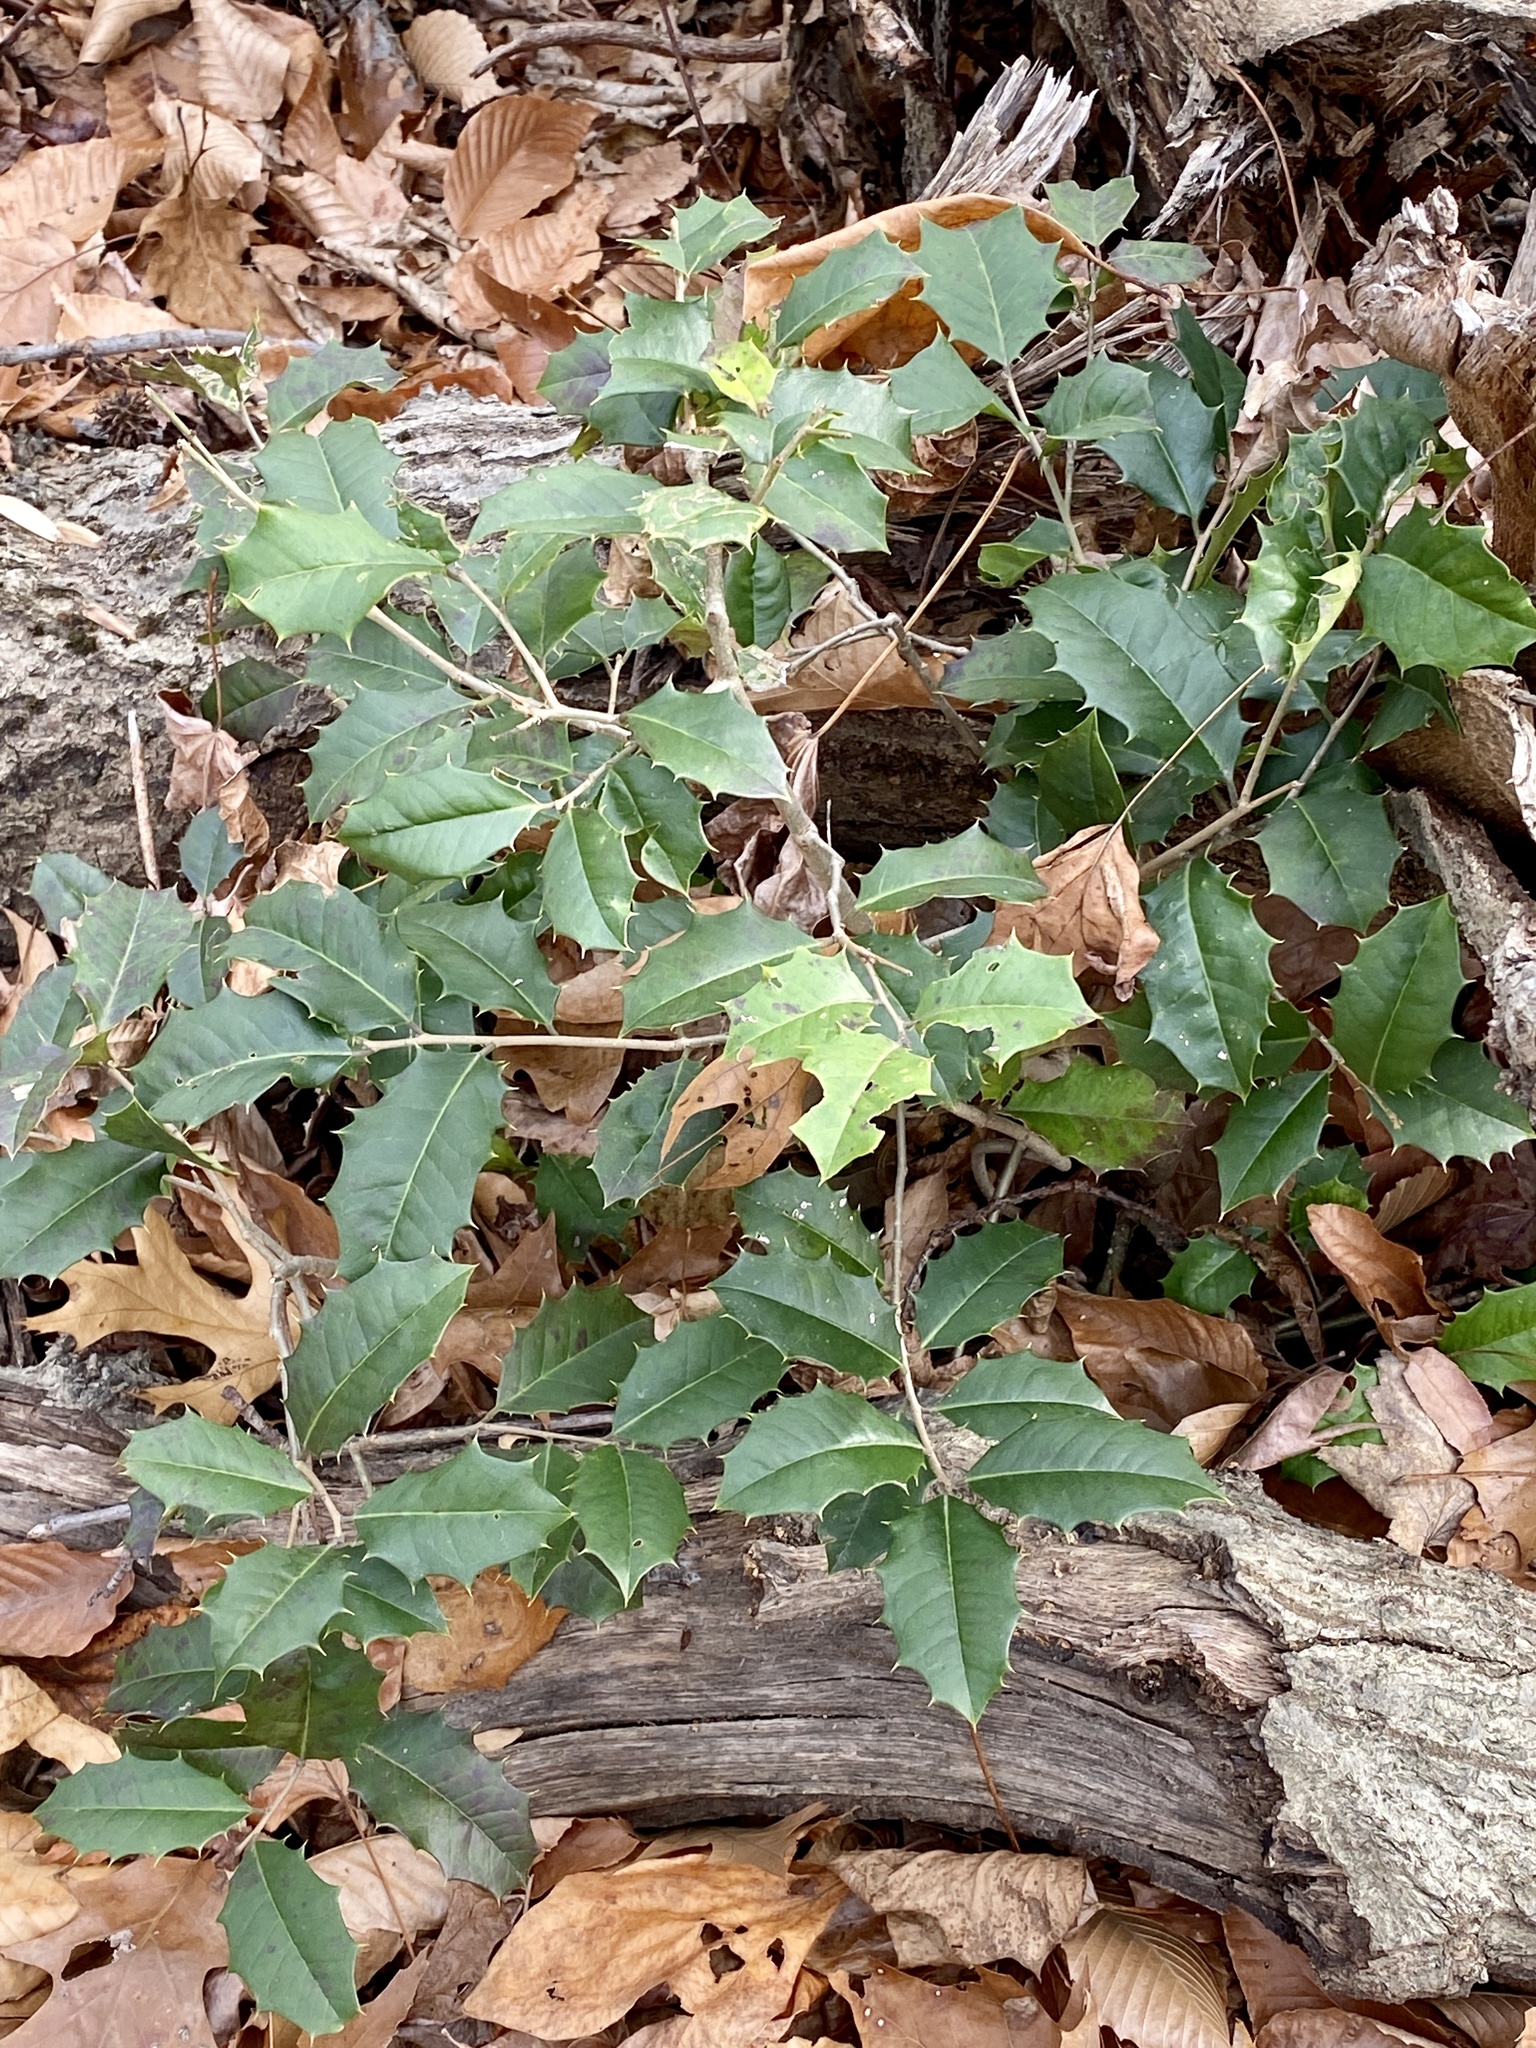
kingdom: Plantae
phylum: Tracheophyta
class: Magnoliopsida
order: Aquifoliales
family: Aquifoliaceae
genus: Ilex
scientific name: Ilex opaca
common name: American holly
